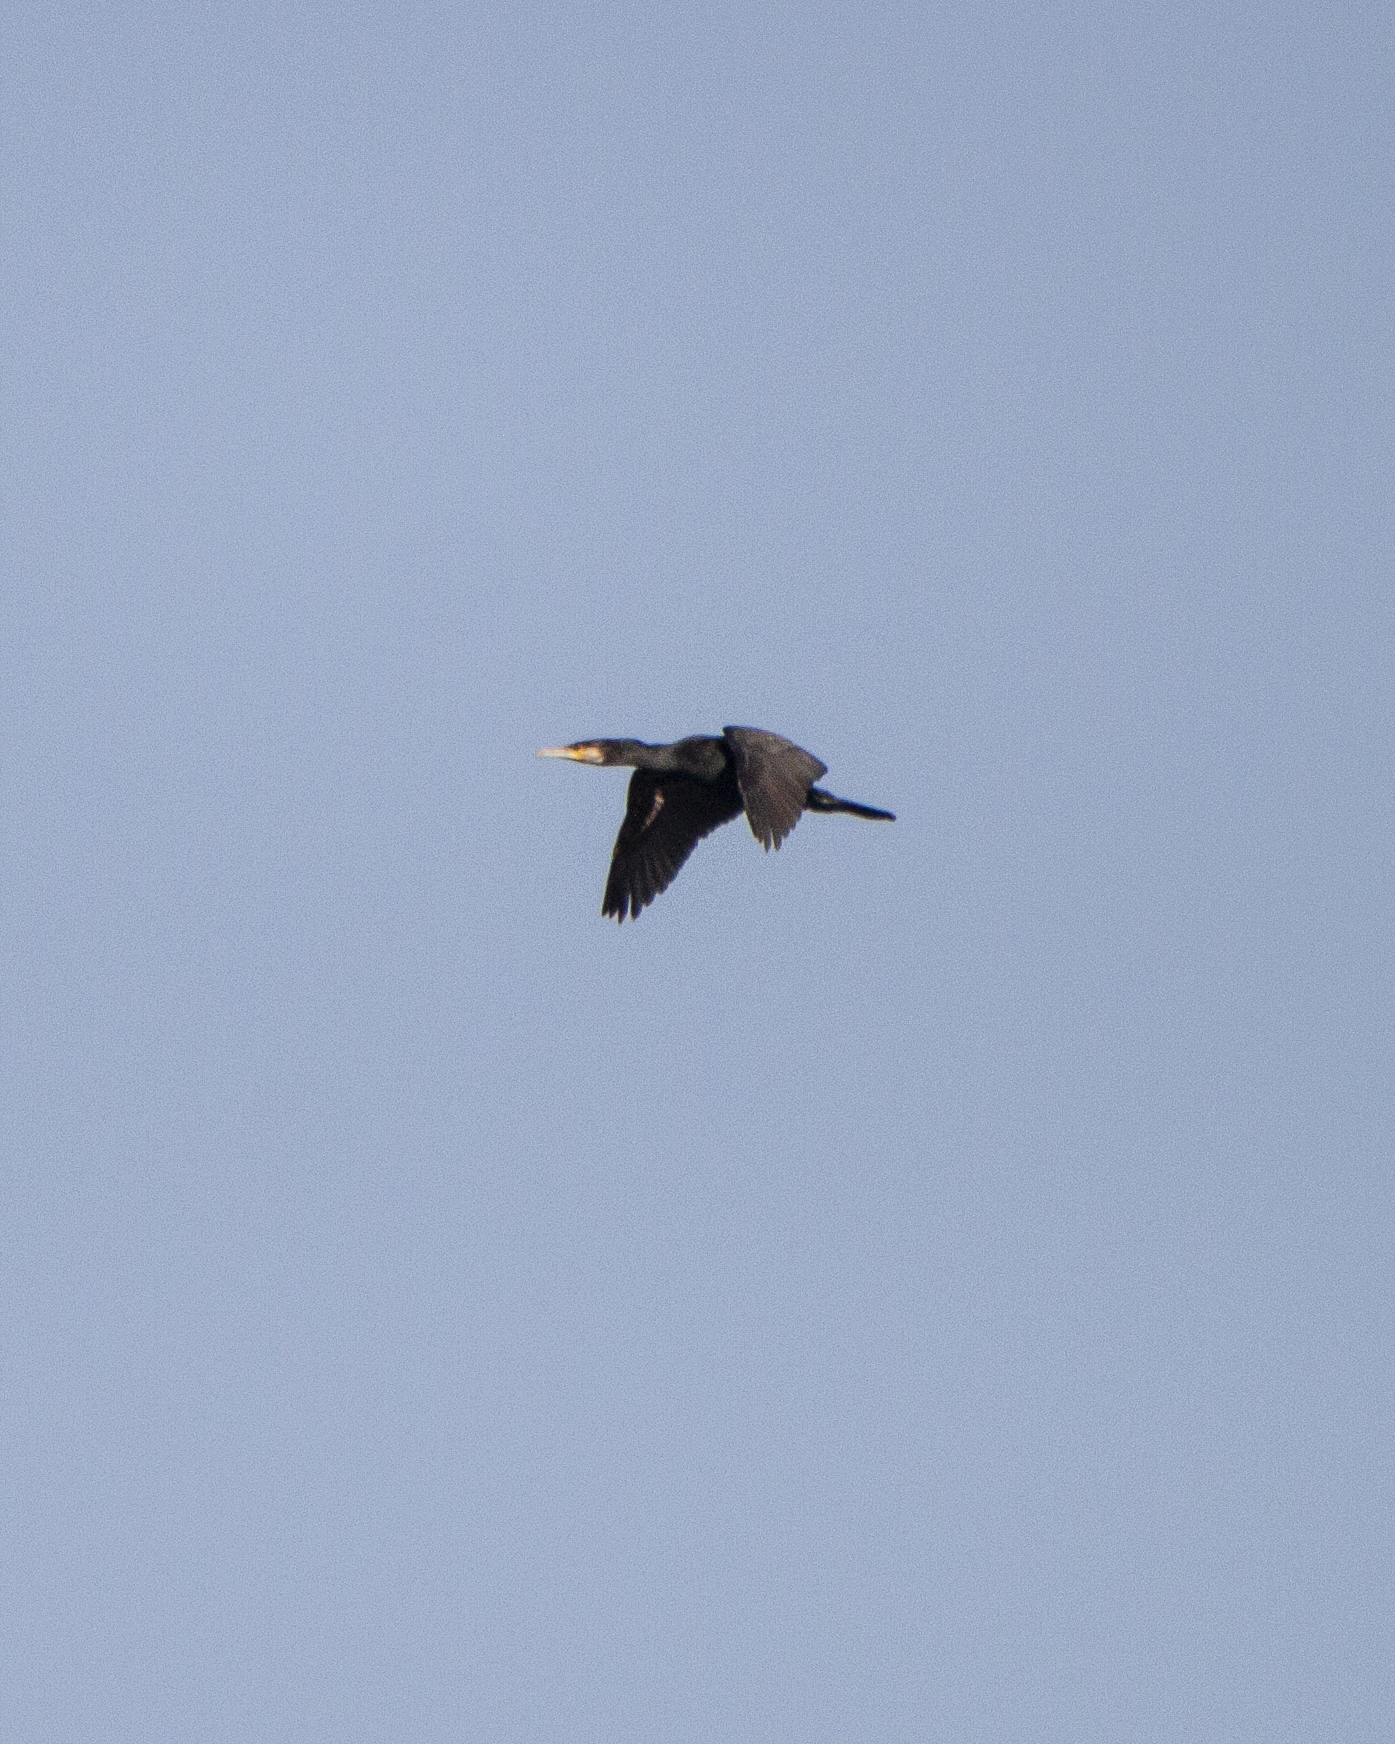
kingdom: Animalia
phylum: Chordata
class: Aves
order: Suliformes
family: Phalacrocoracidae
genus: Phalacrocorax
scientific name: Phalacrocorax carbo
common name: Great cormorant
